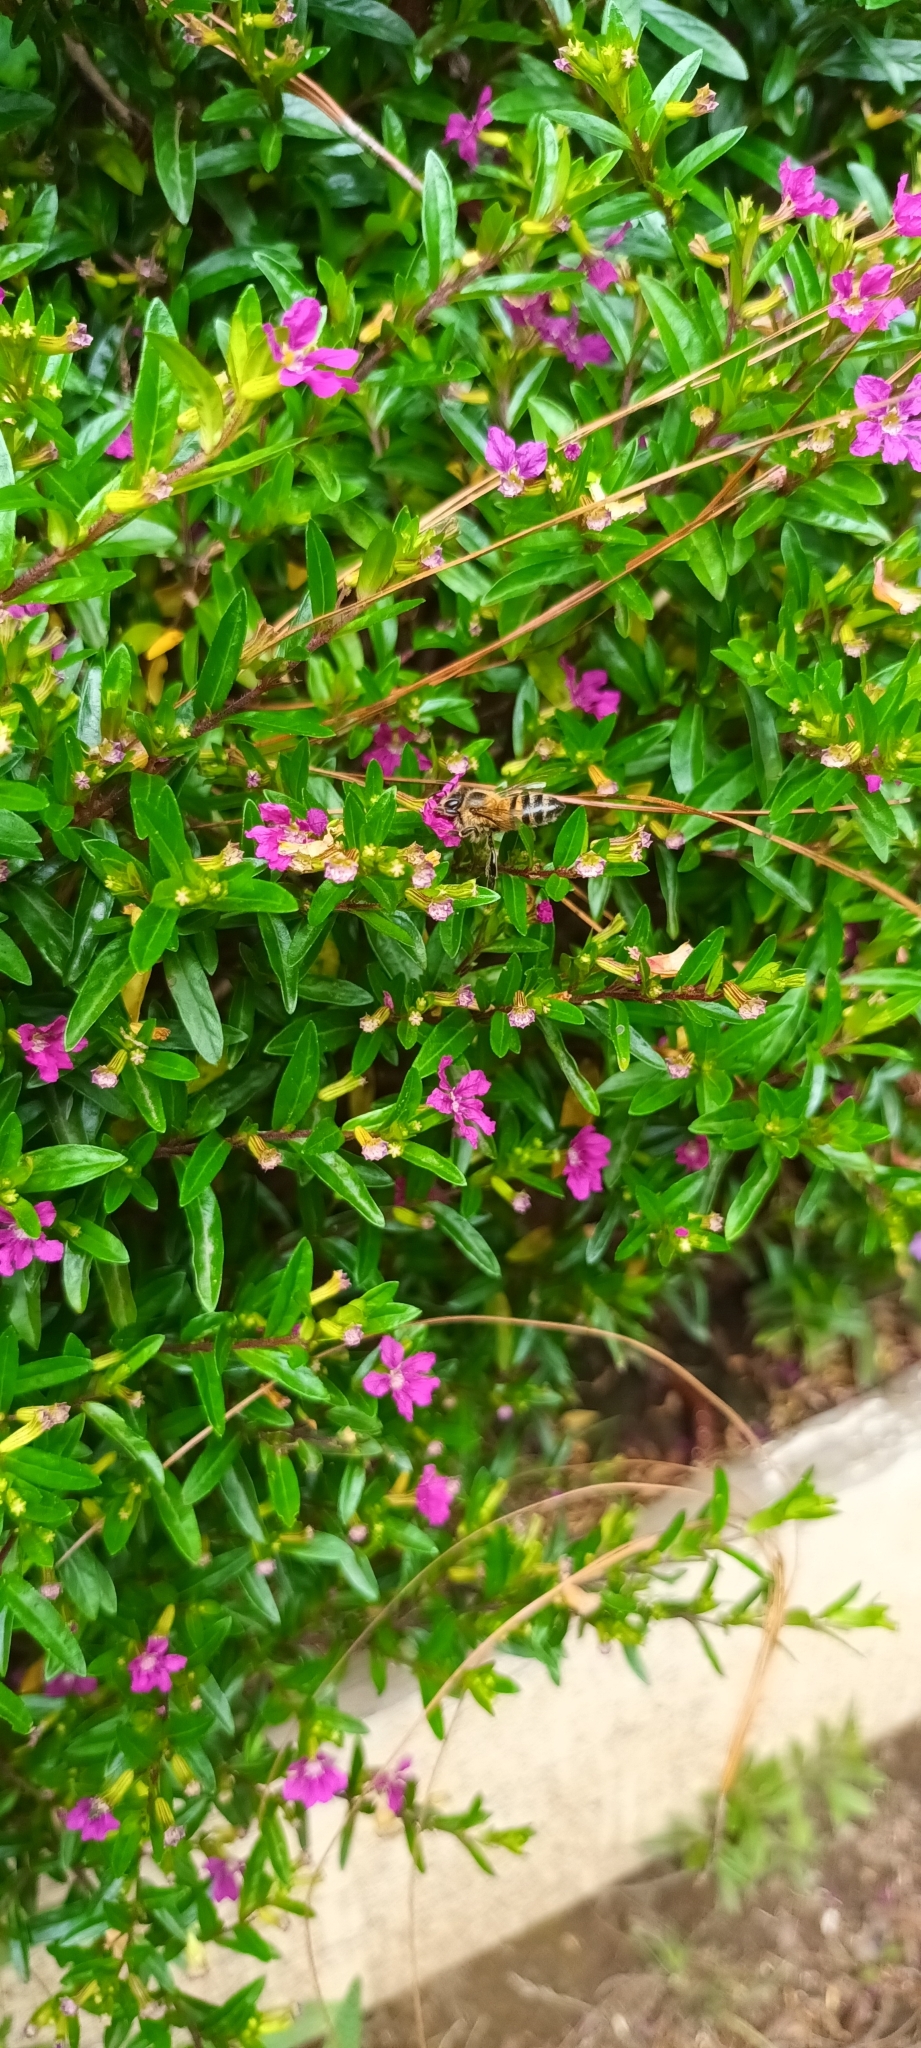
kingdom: Animalia
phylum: Arthropoda
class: Insecta
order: Hymenoptera
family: Apidae
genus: Apis
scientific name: Apis mellifera
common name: Honey bee
